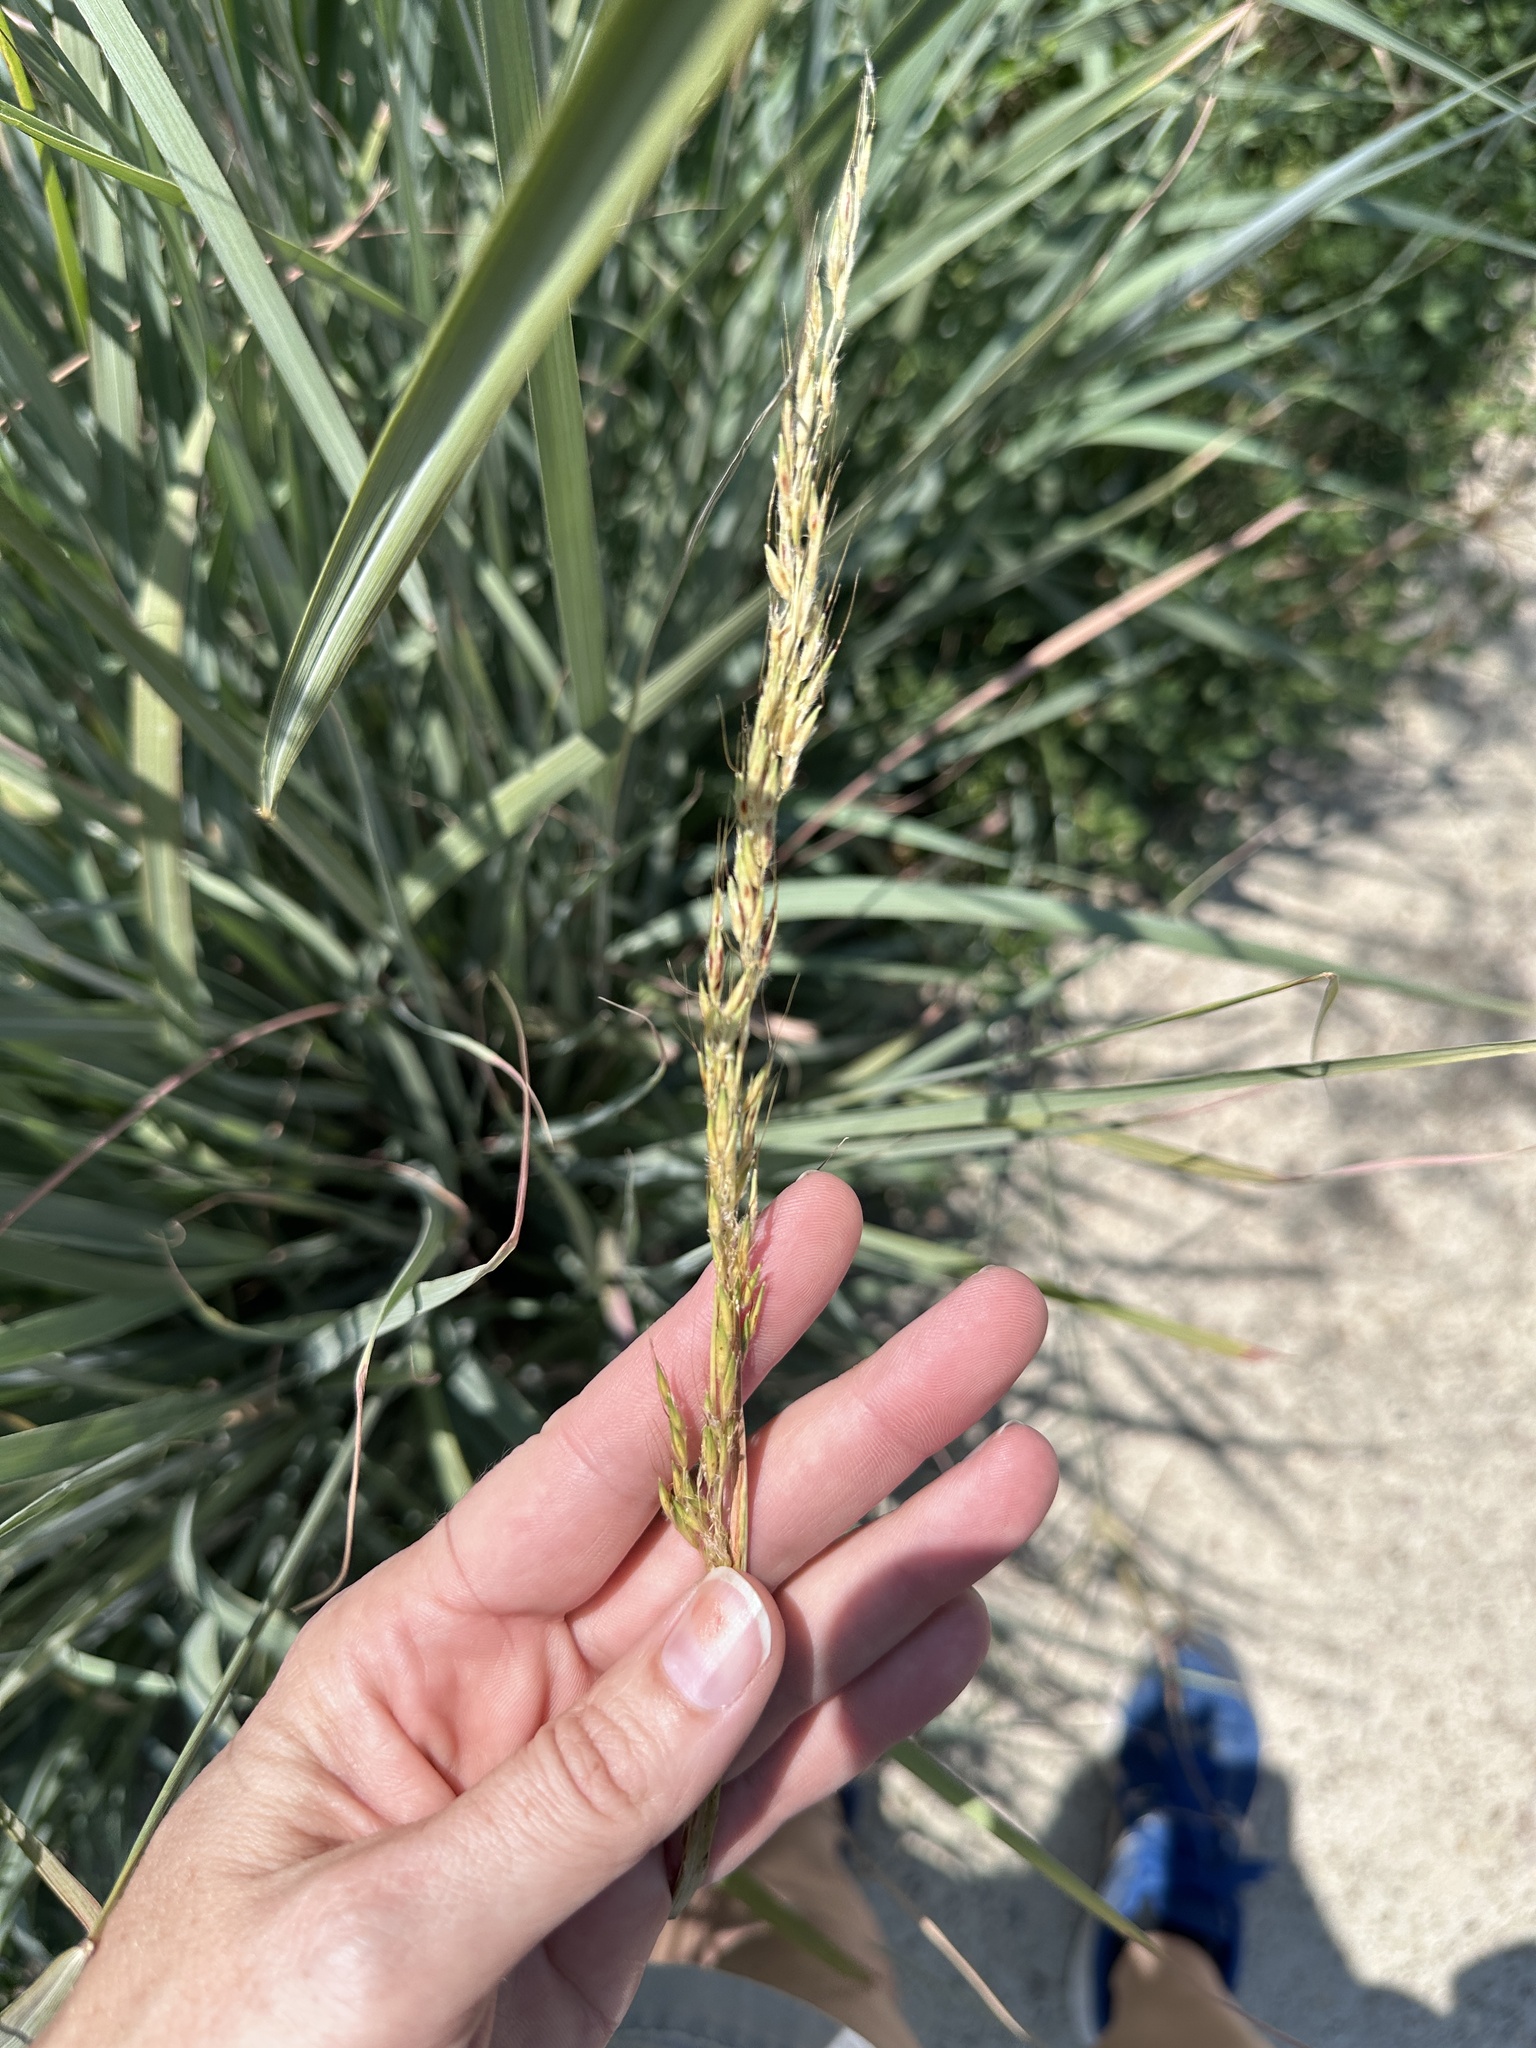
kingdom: Plantae
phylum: Tracheophyta
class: Liliopsida
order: Poales
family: Poaceae
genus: Sorghastrum
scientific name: Sorghastrum nutans
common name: Indian grass
